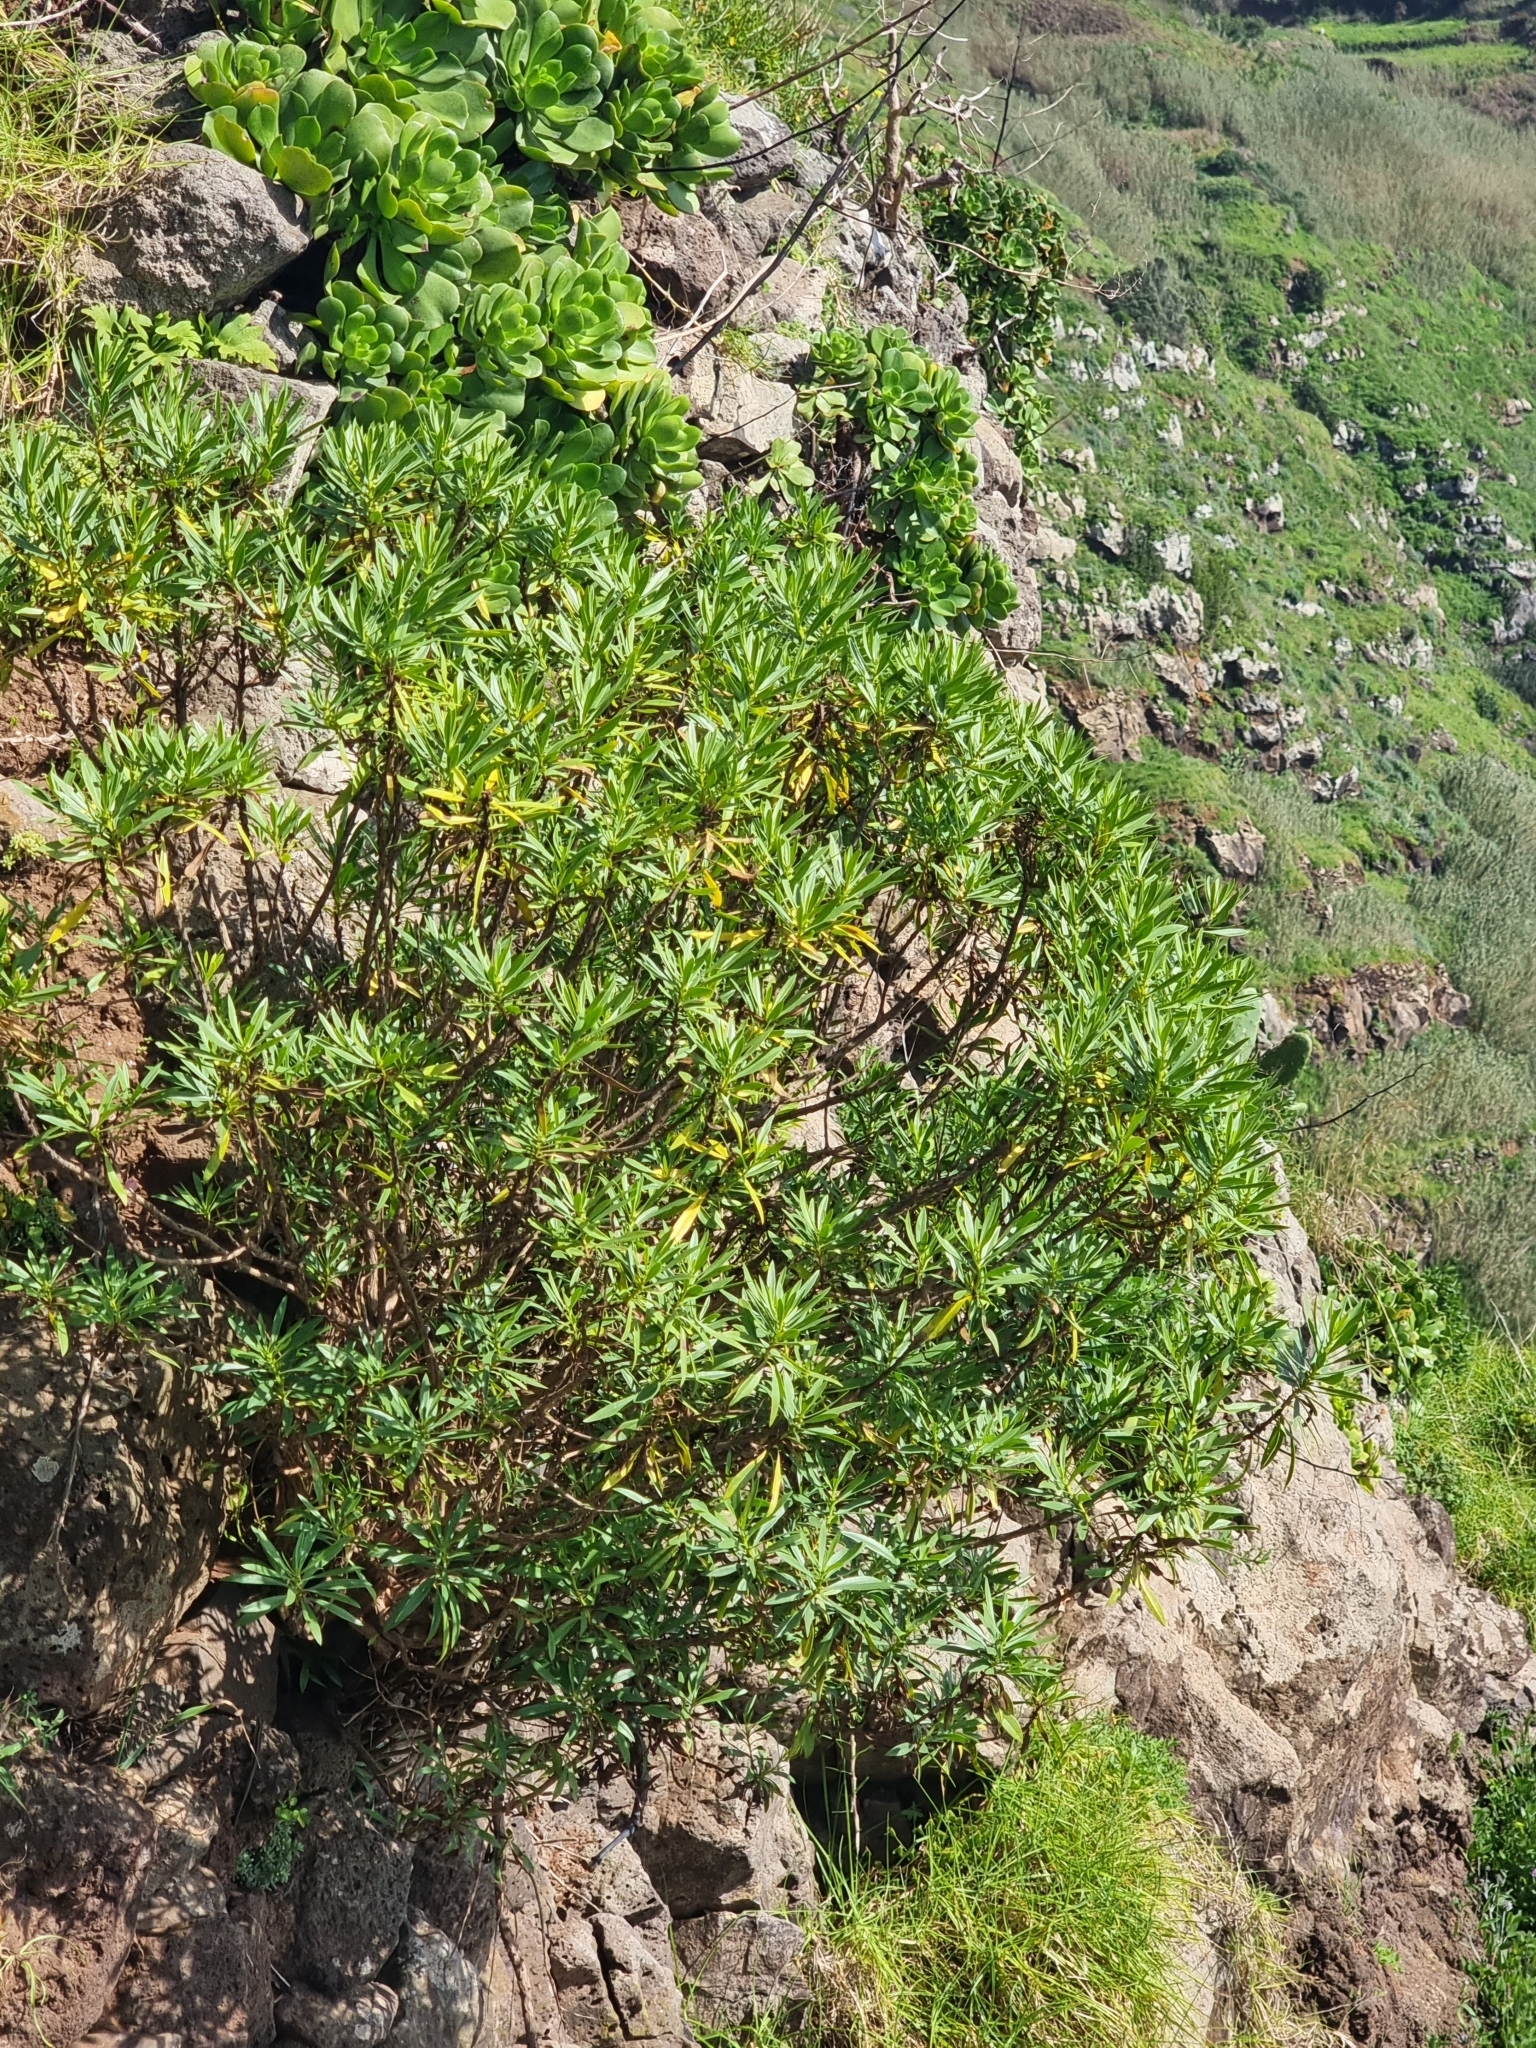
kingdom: Plantae
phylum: Tracheophyta
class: Magnoliopsida
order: Lamiales
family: Plantaginaceae
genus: Globularia
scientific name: Globularia salicina
